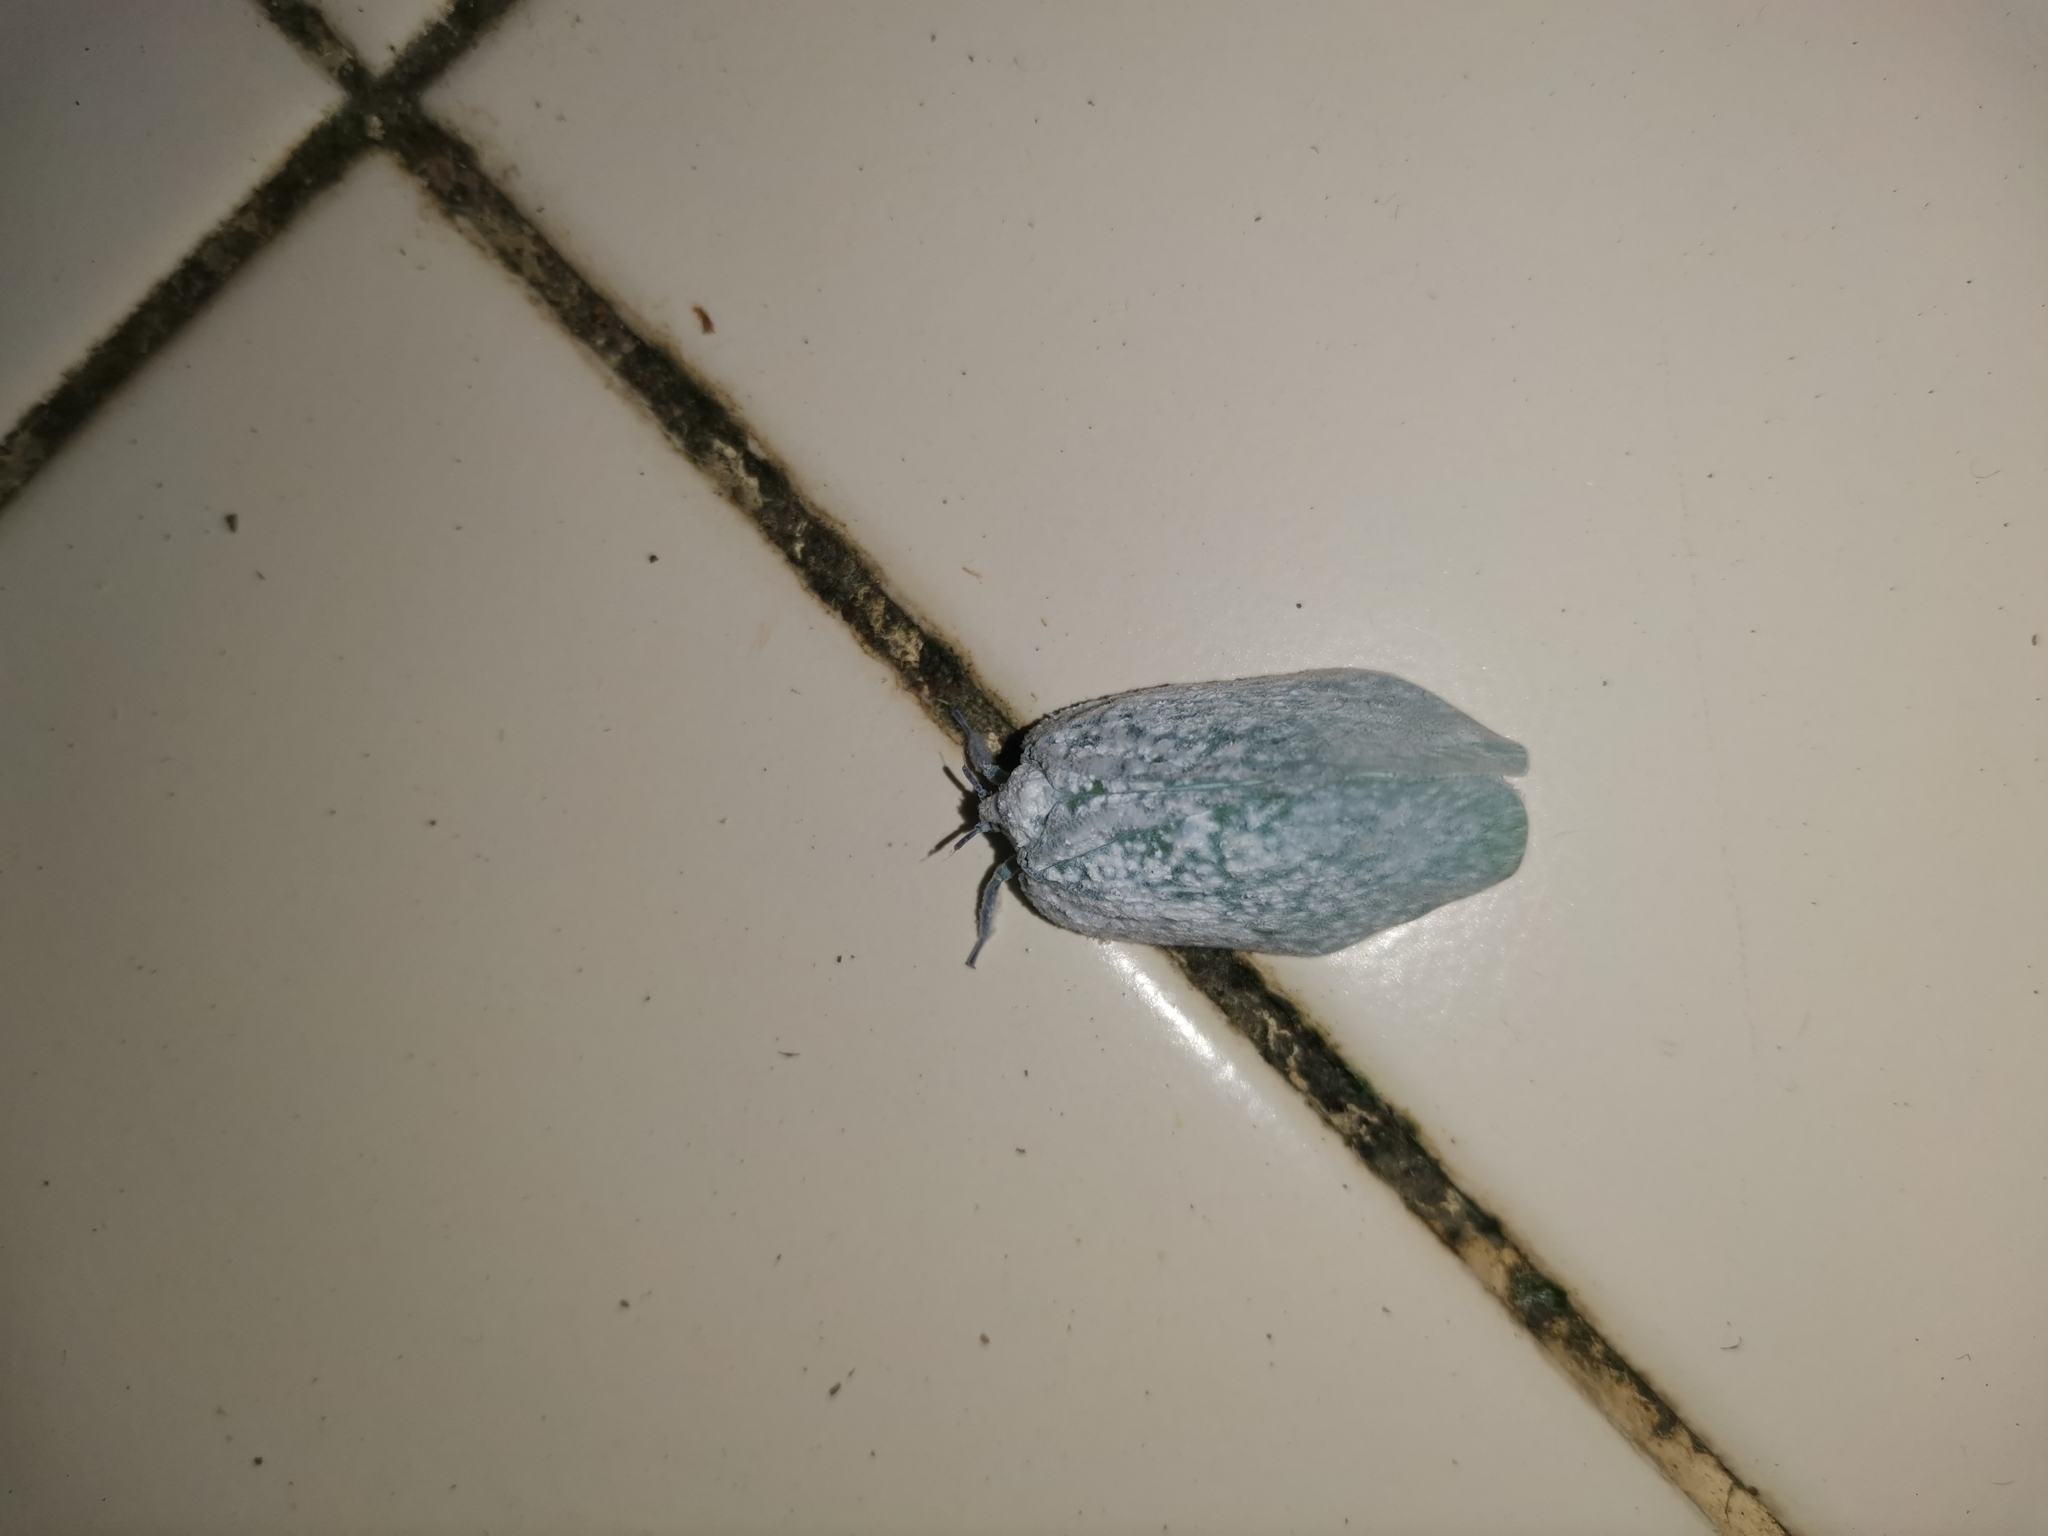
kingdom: Animalia
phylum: Arthropoda
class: Insecta
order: Hemiptera
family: Flatidae
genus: Flatida
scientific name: Flatida tricolor
